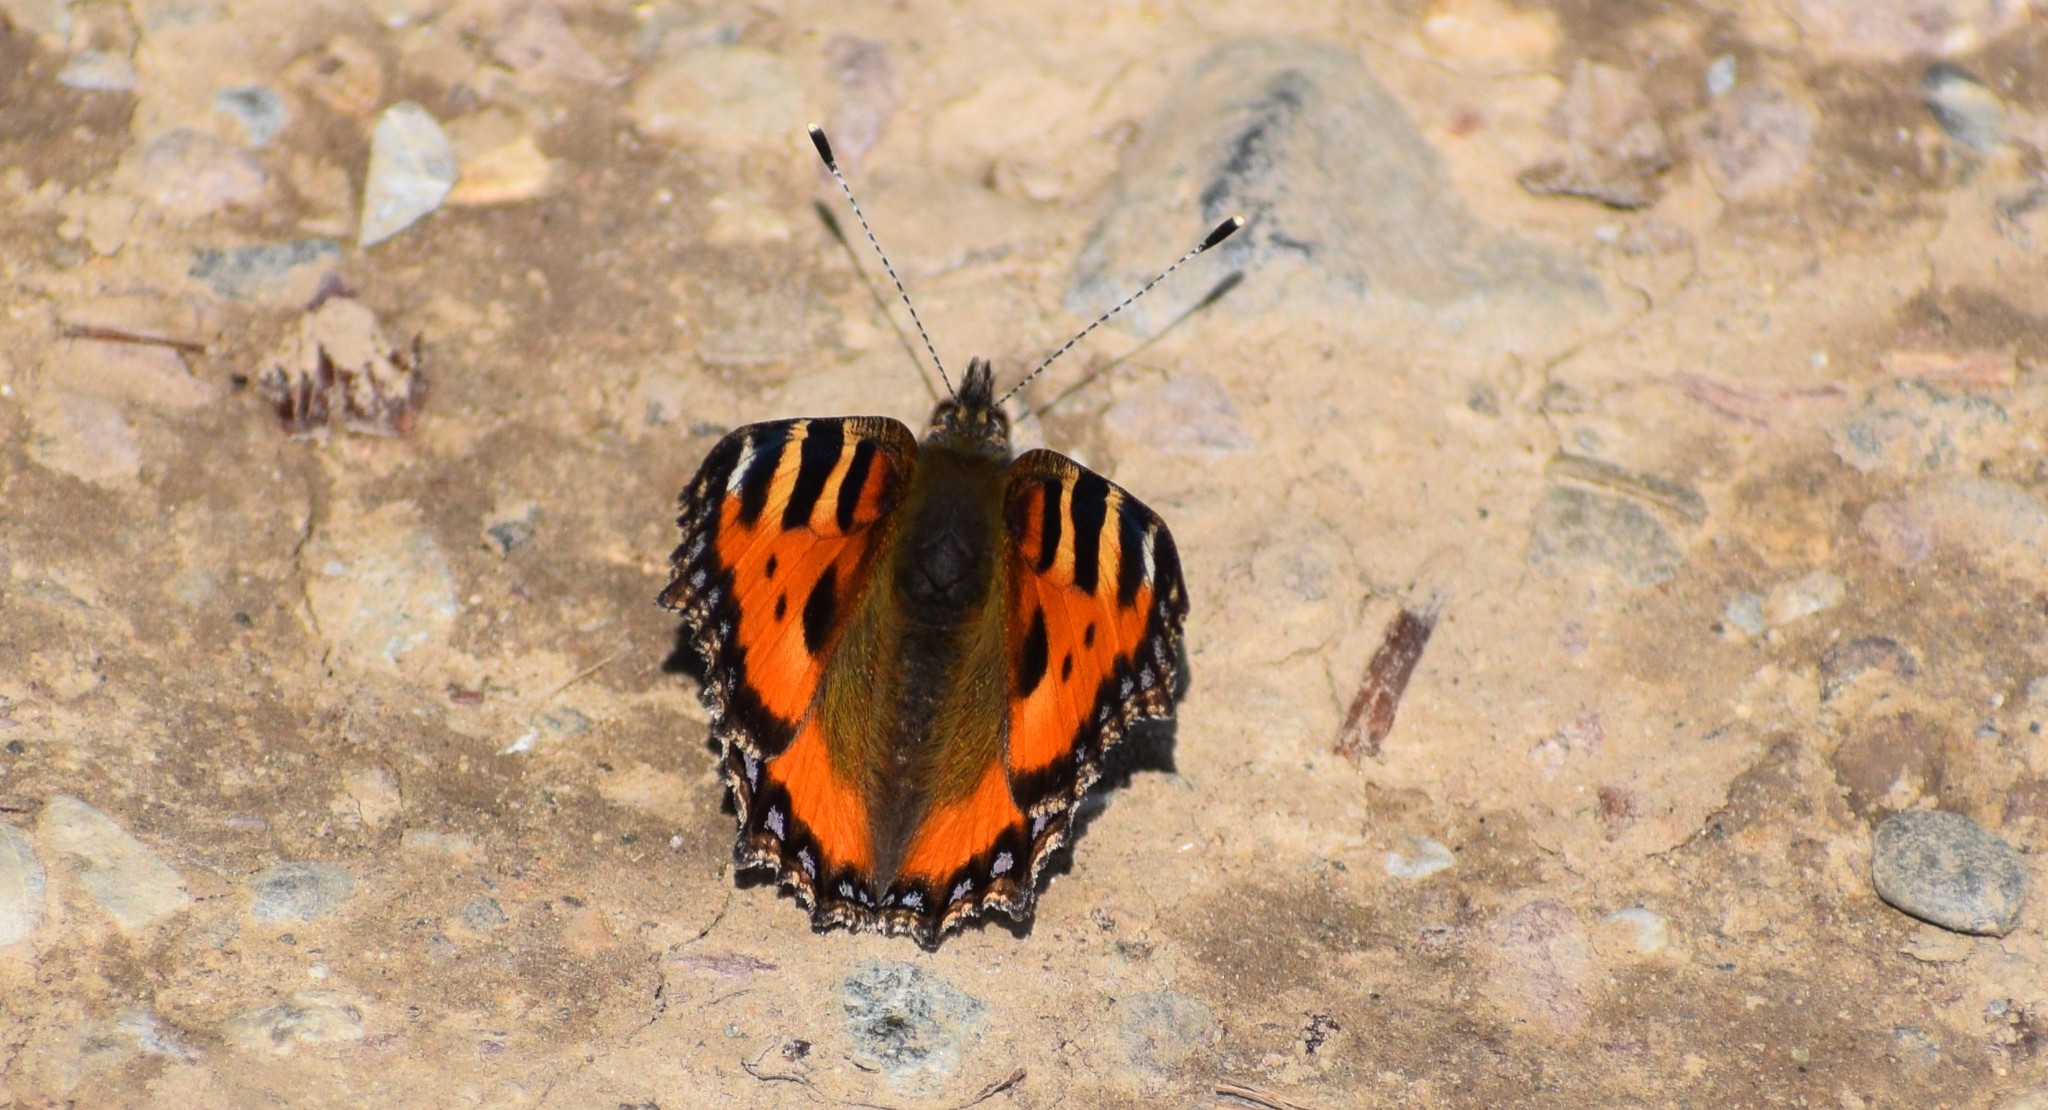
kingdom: Animalia
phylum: Arthropoda
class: Insecta
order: Lepidoptera
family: Nymphalidae
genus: Aglais
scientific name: Aglais urticae
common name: Small tortoiseshell
